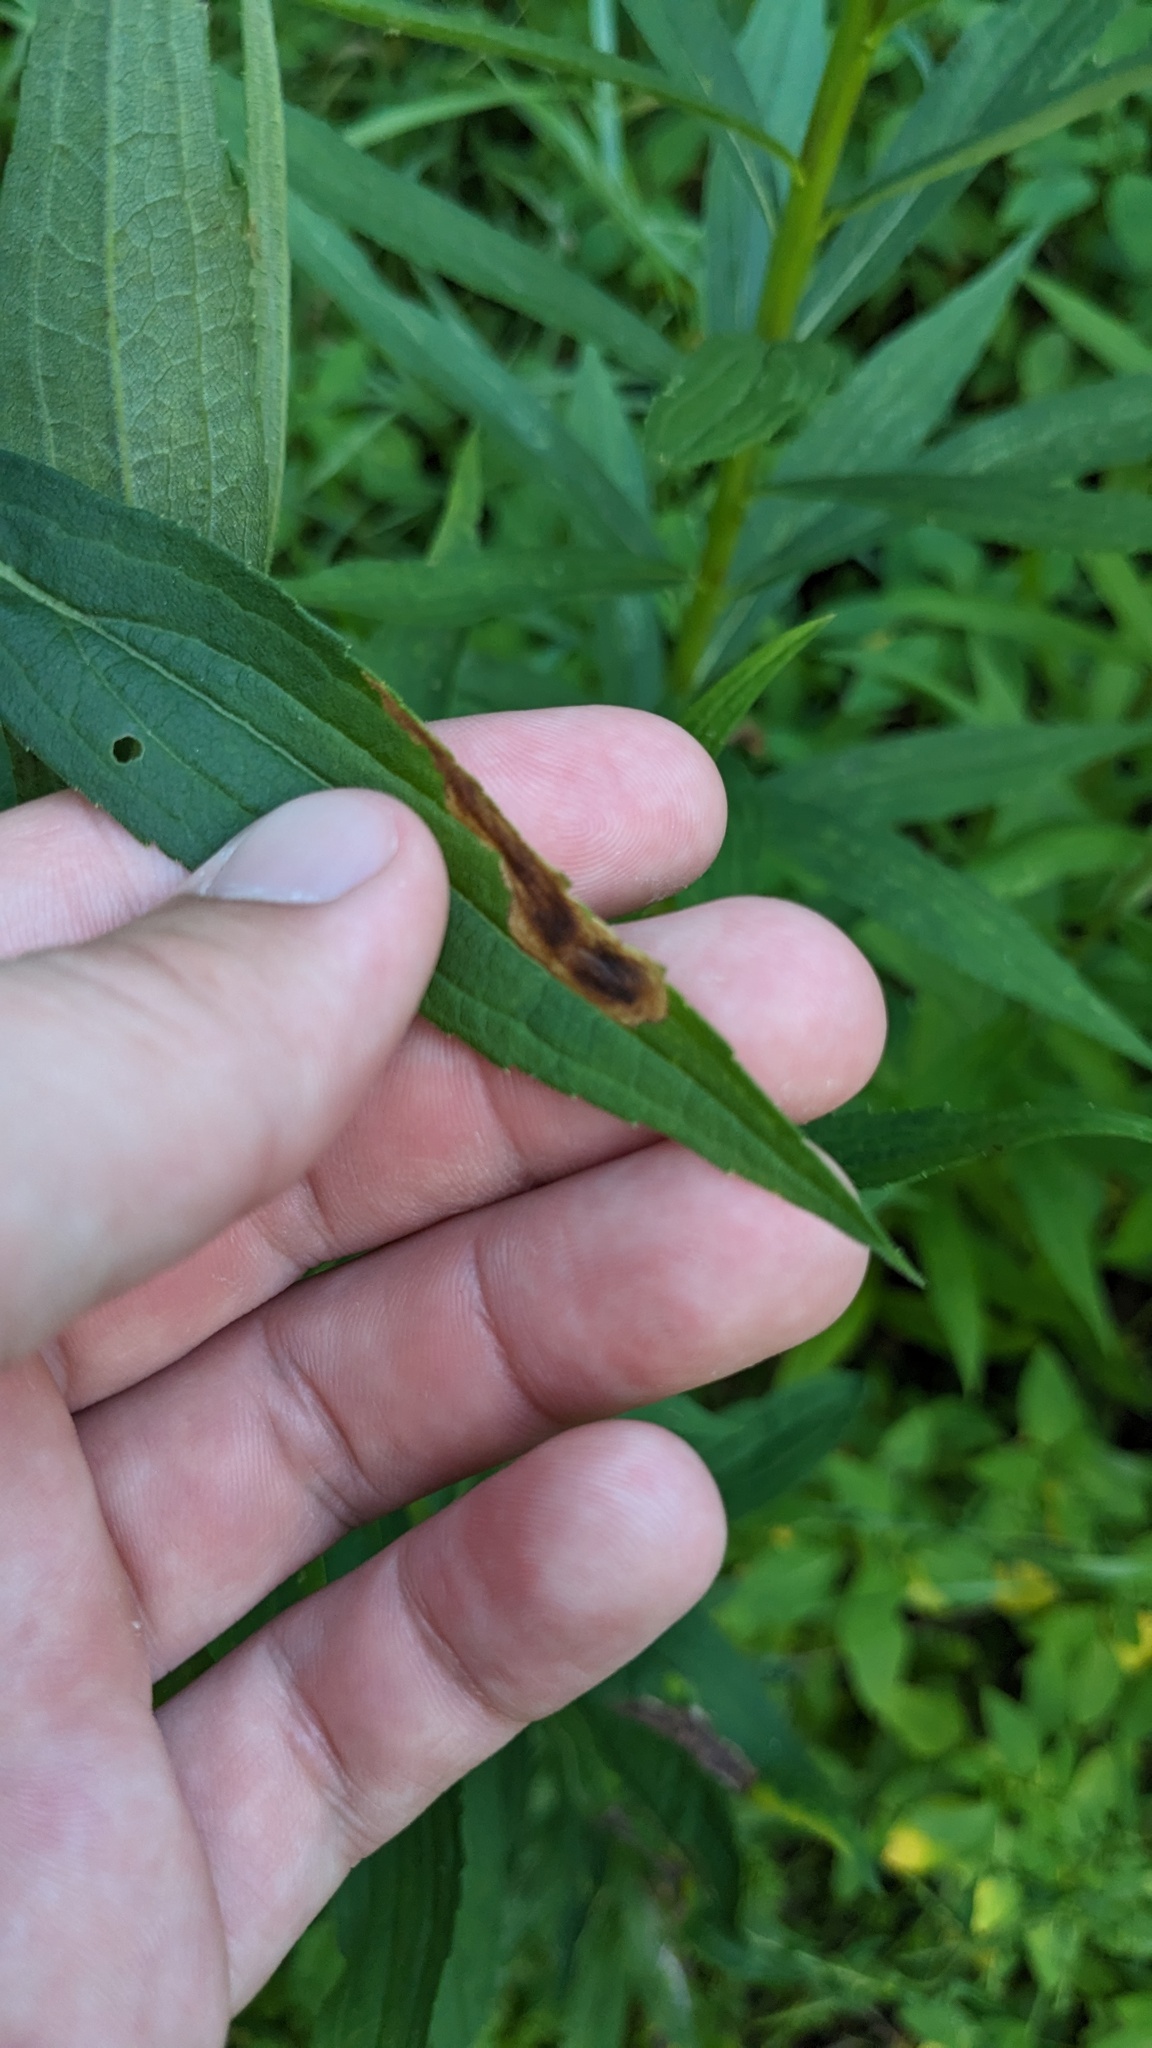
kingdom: Animalia
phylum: Arthropoda
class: Insecta
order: Diptera
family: Agromyzidae
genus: Nemorimyza
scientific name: Nemorimyza posticata
